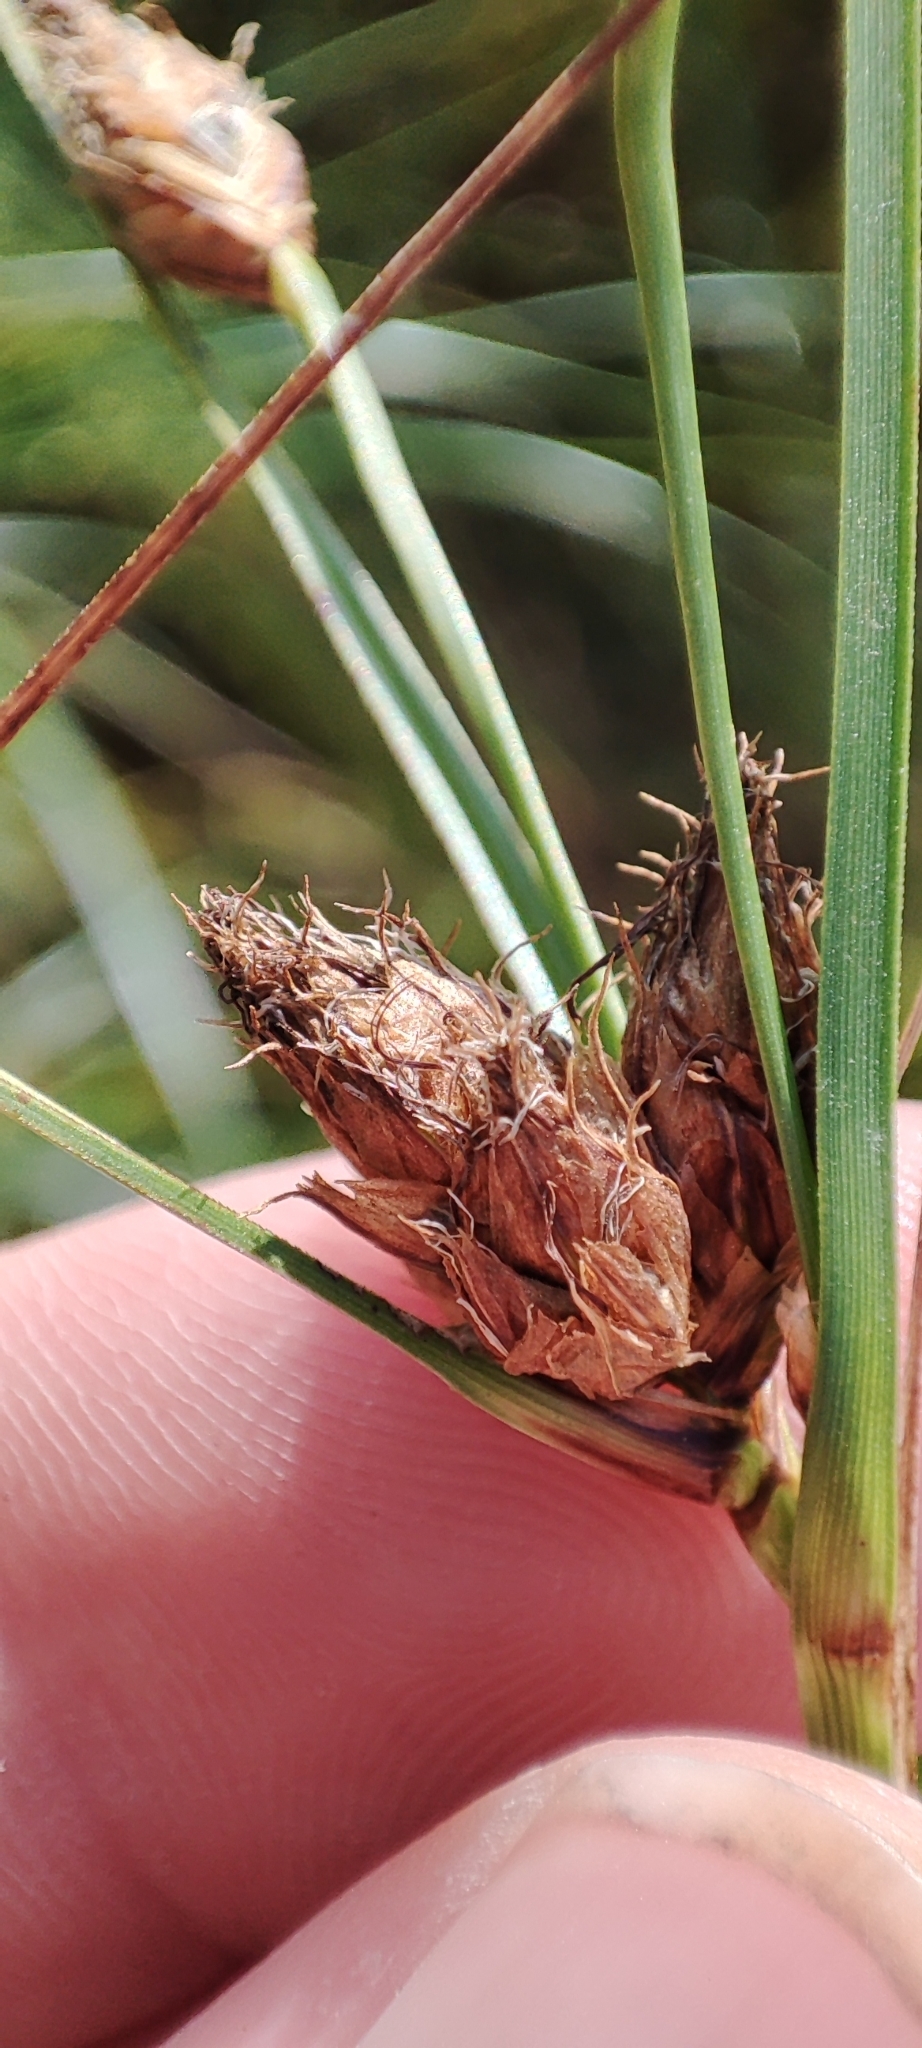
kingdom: Plantae
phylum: Tracheophyta
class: Liliopsida
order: Poales
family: Cyperaceae
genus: Bolboschoenus
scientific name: Bolboschoenus maritimus
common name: Sea club-rush
